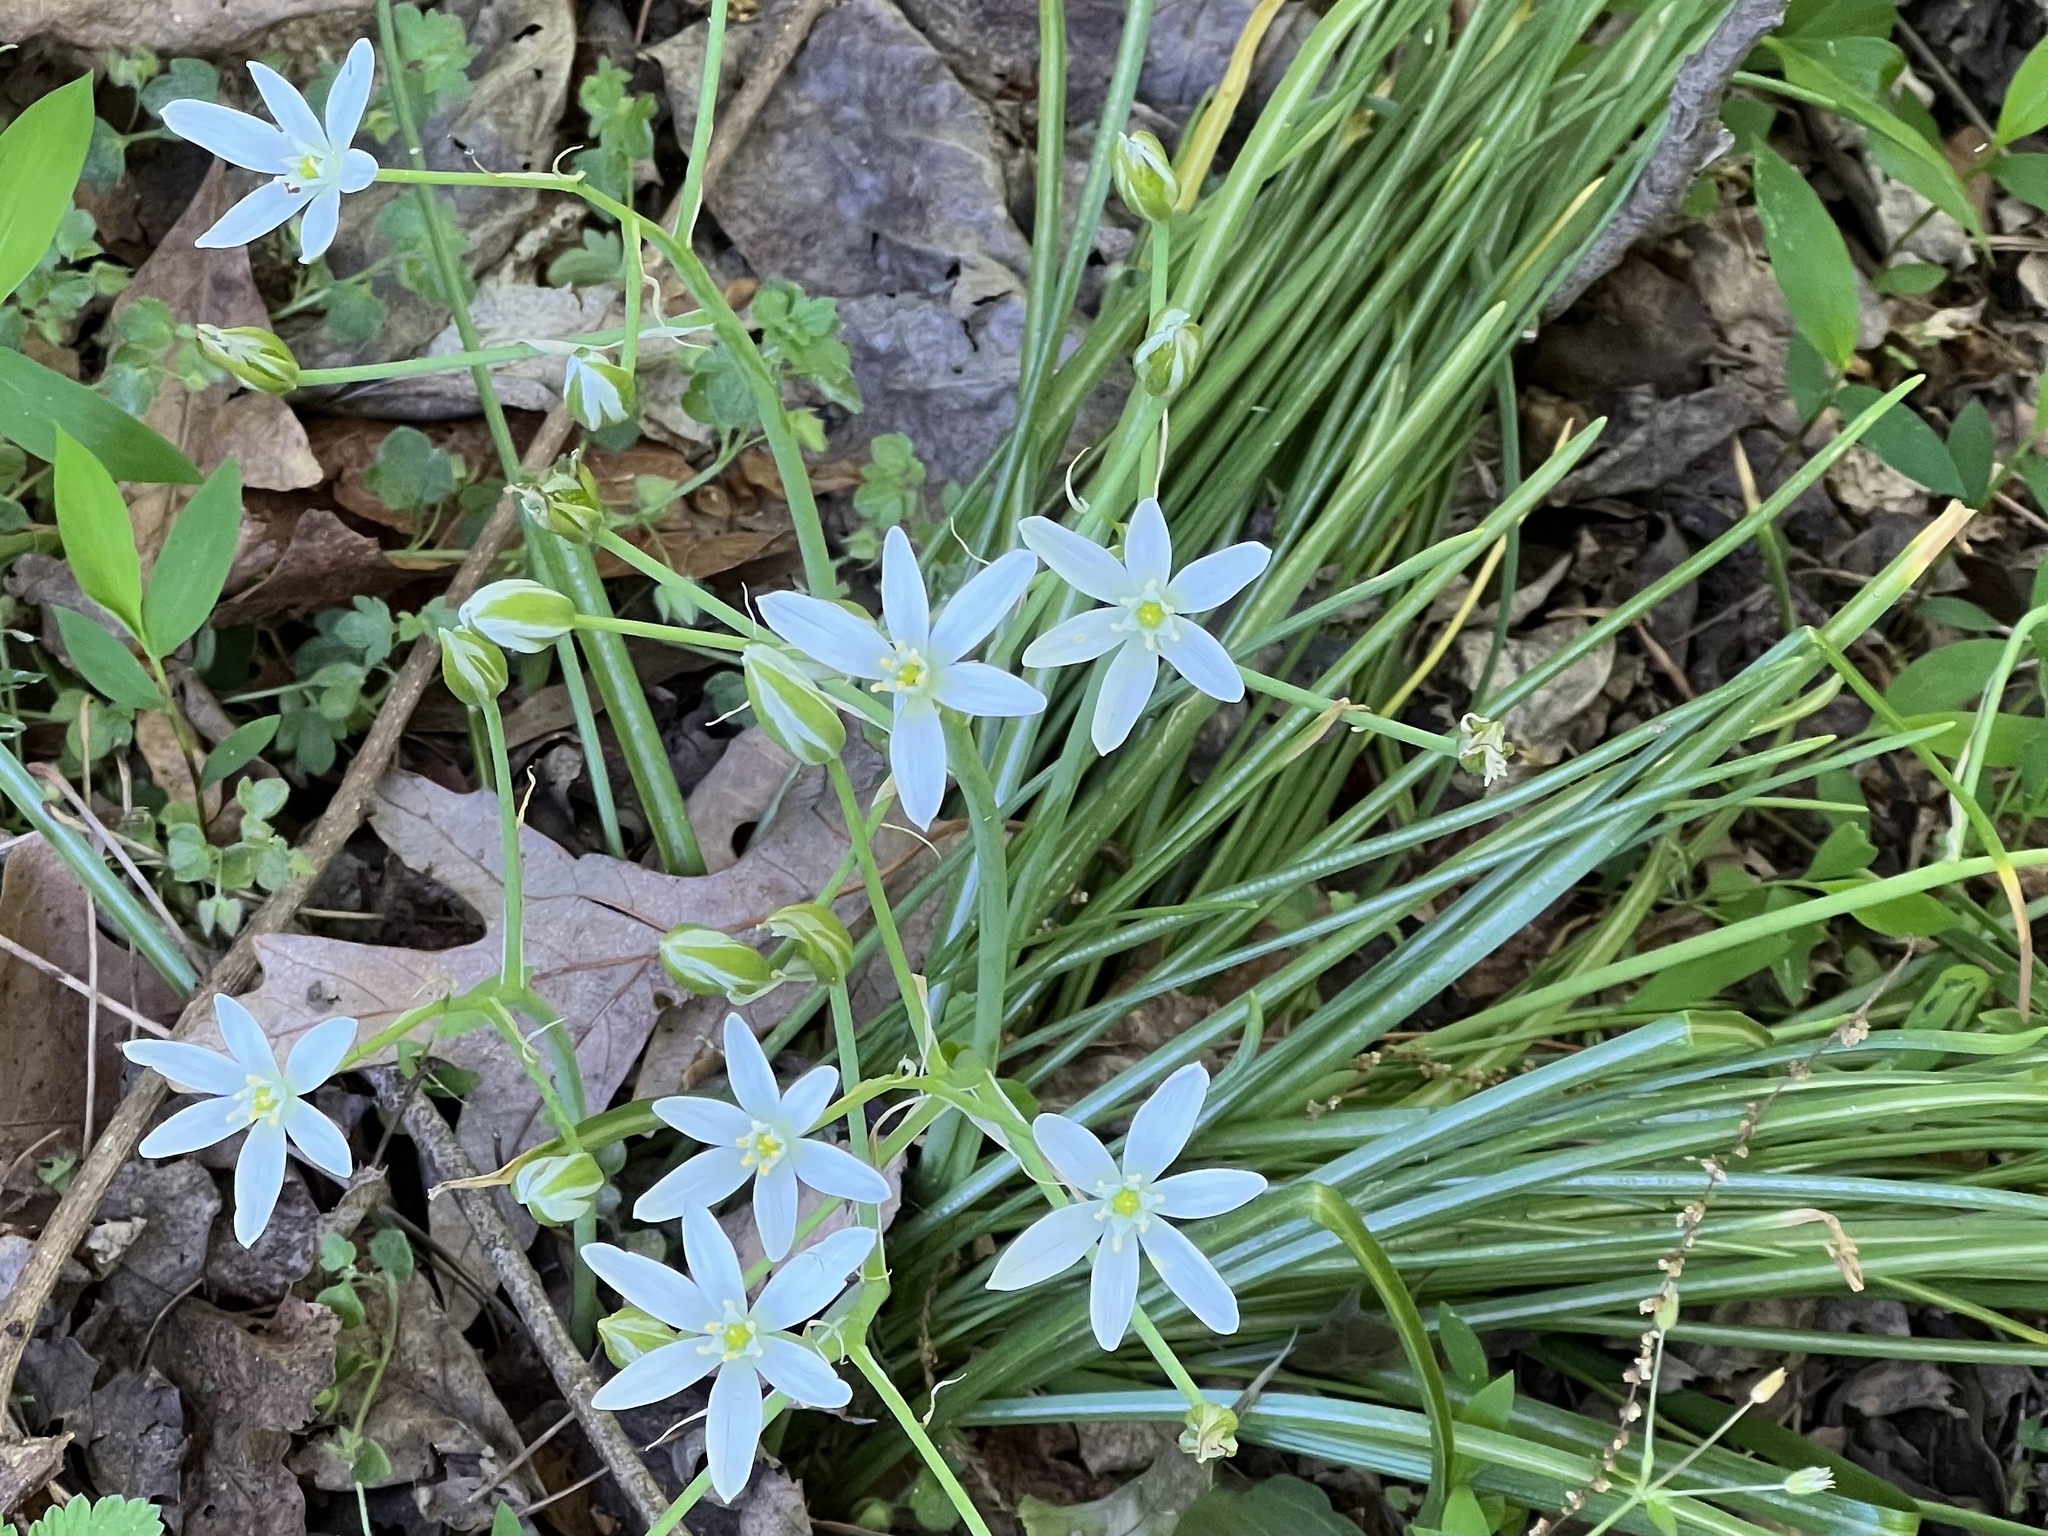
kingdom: Plantae
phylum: Tracheophyta
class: Liliopsida
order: Asparagales
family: Asparagaceae
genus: Ornithogalum
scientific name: Ornithogalum umbellatum
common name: Garden star-of-bethlehem
